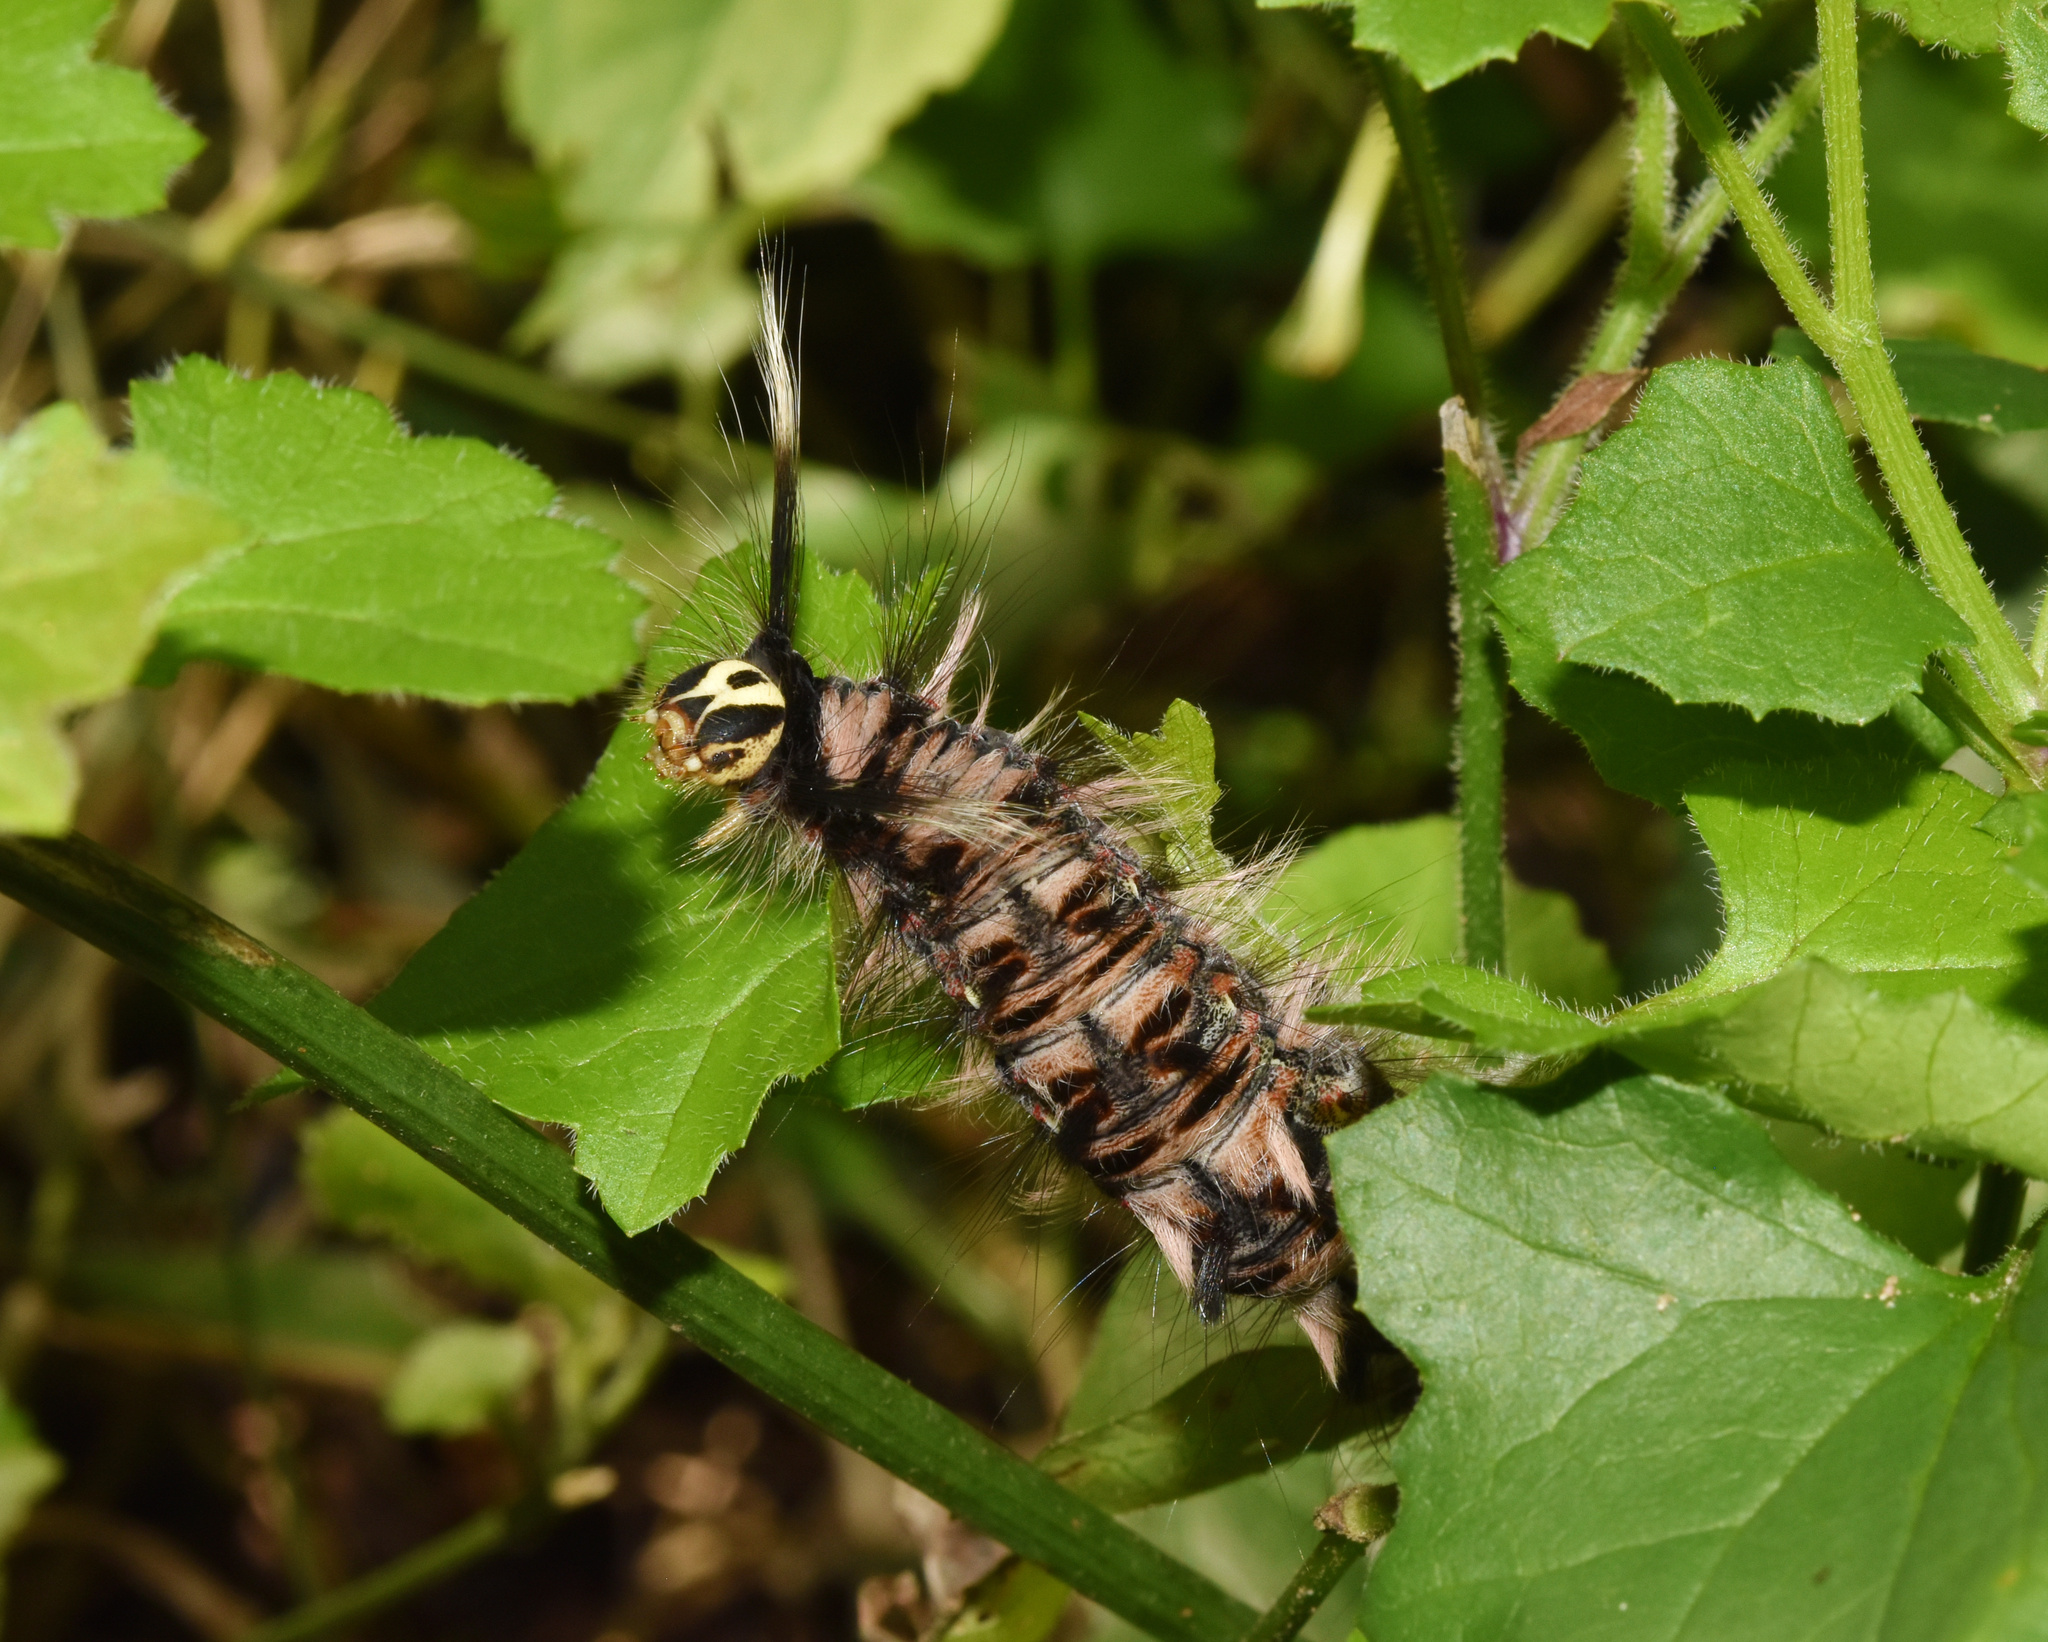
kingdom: Animalia
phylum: Arthropoda
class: Insecta
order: Lepidoptera
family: Lasiocampidae
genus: Eucraera
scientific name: Eucraera salammbo
